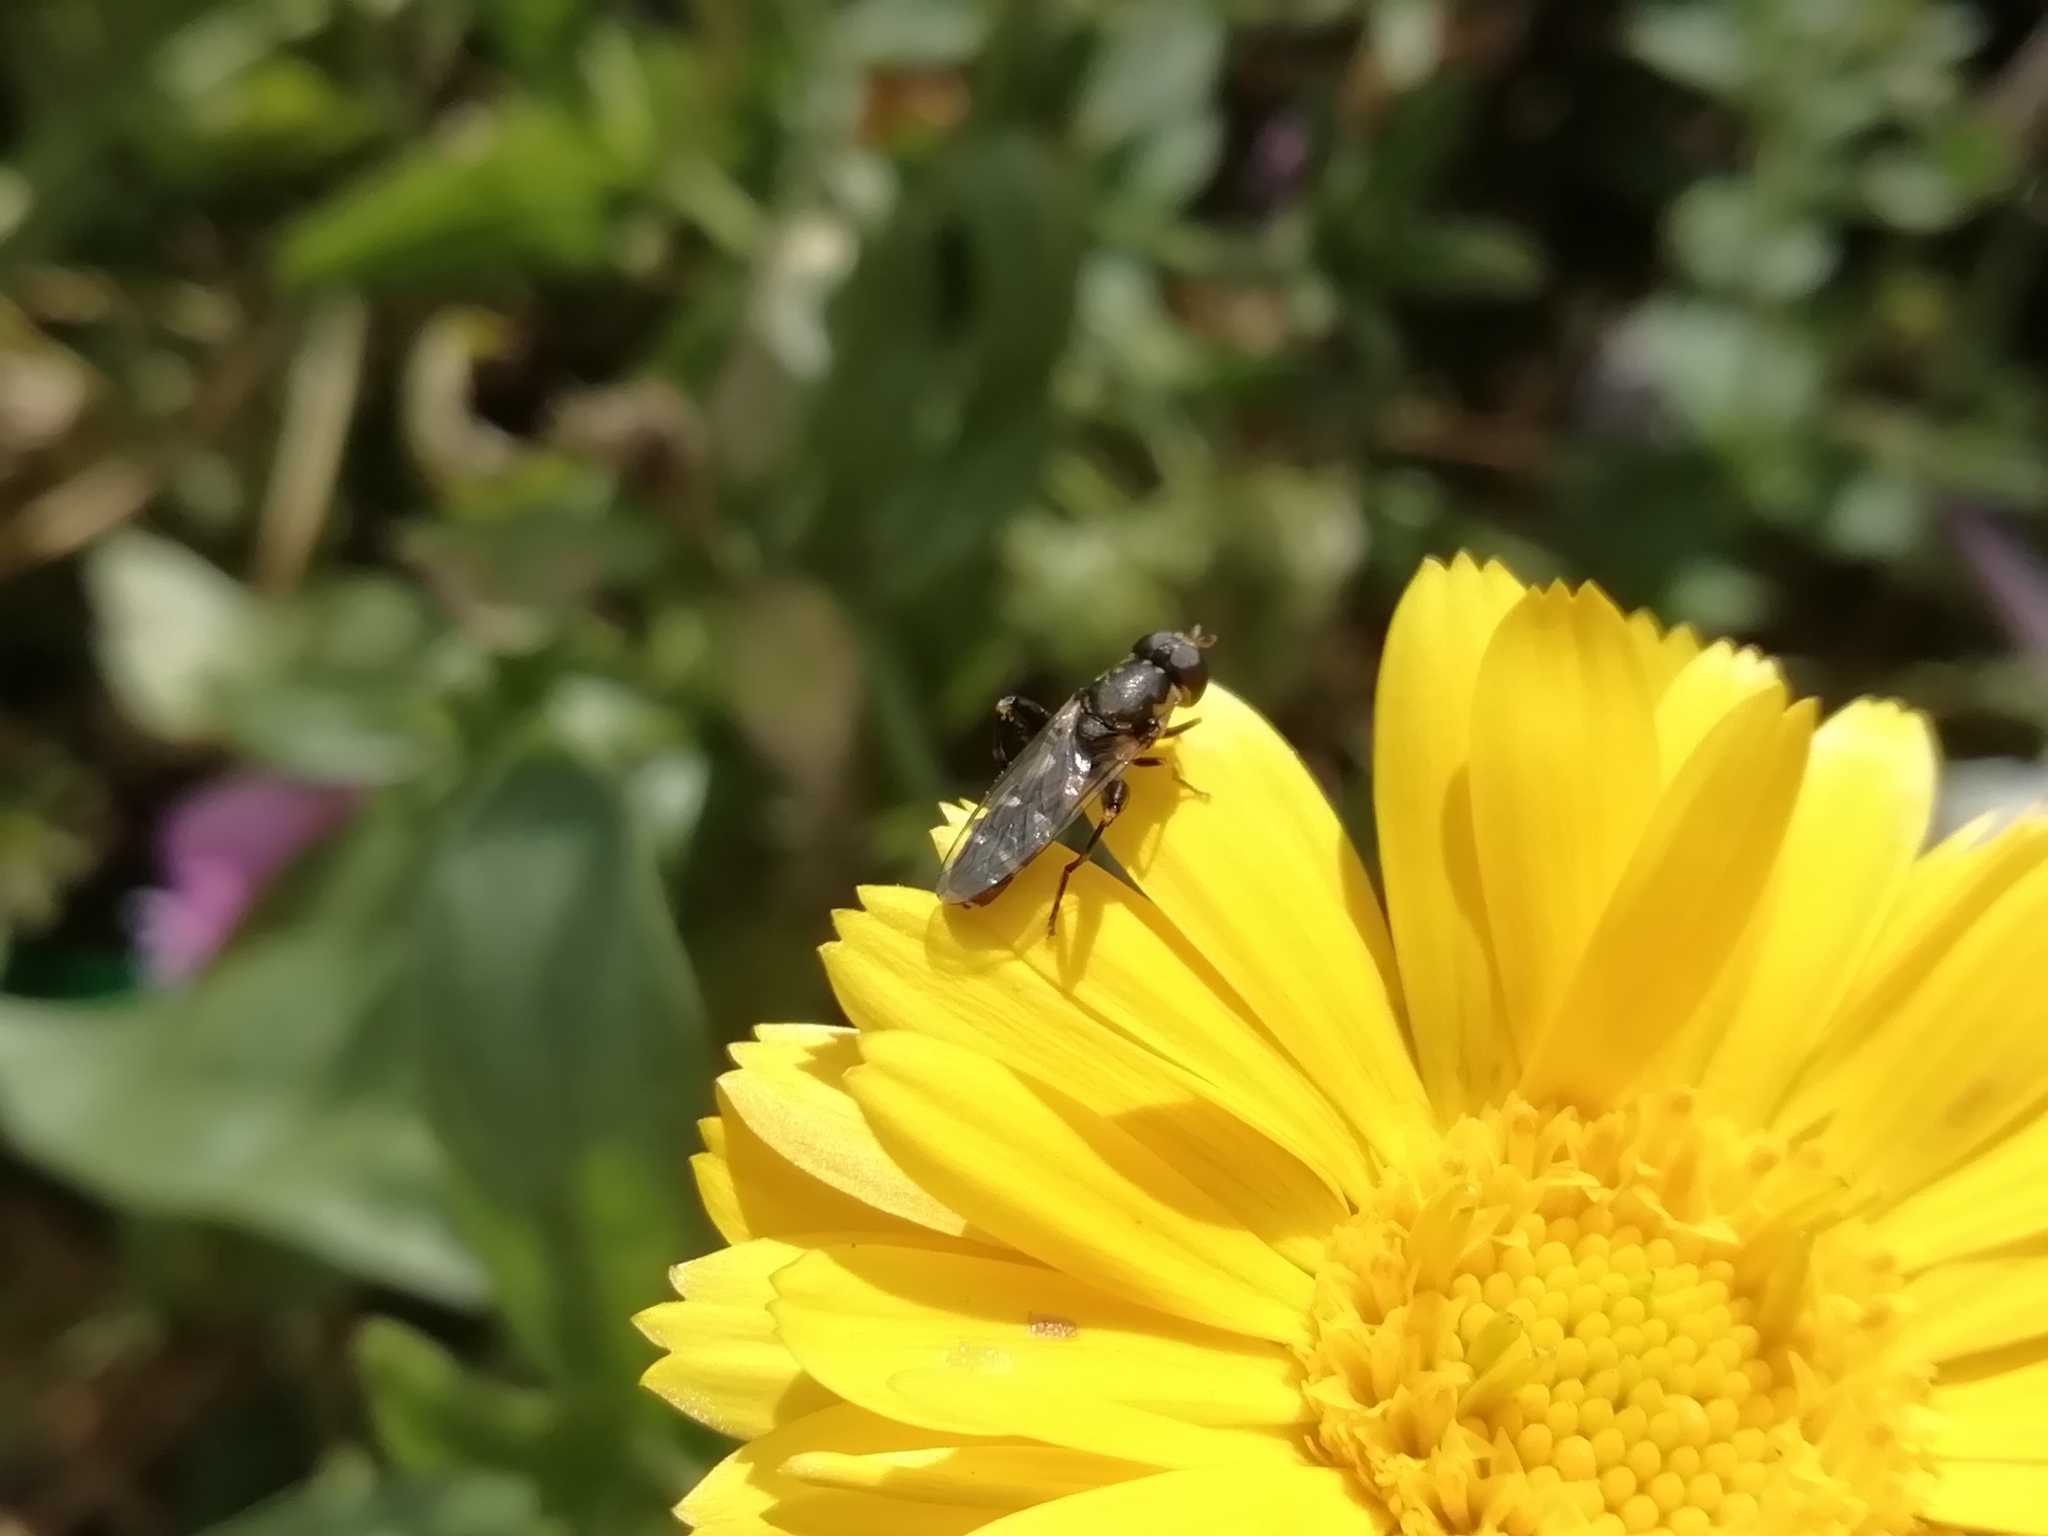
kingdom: Animalia
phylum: Arthropoda
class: Insecta
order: Diptera
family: Syrphidae
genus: Syritta
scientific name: Syritta pipiens
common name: Hover fly
